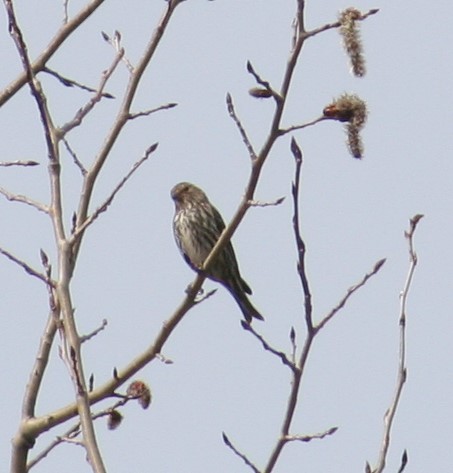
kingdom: Animalia
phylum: Chordata
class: Aves
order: Passeriformes
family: Fringillidae
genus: Spinus
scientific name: Spinus pinus
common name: Pine siskin
